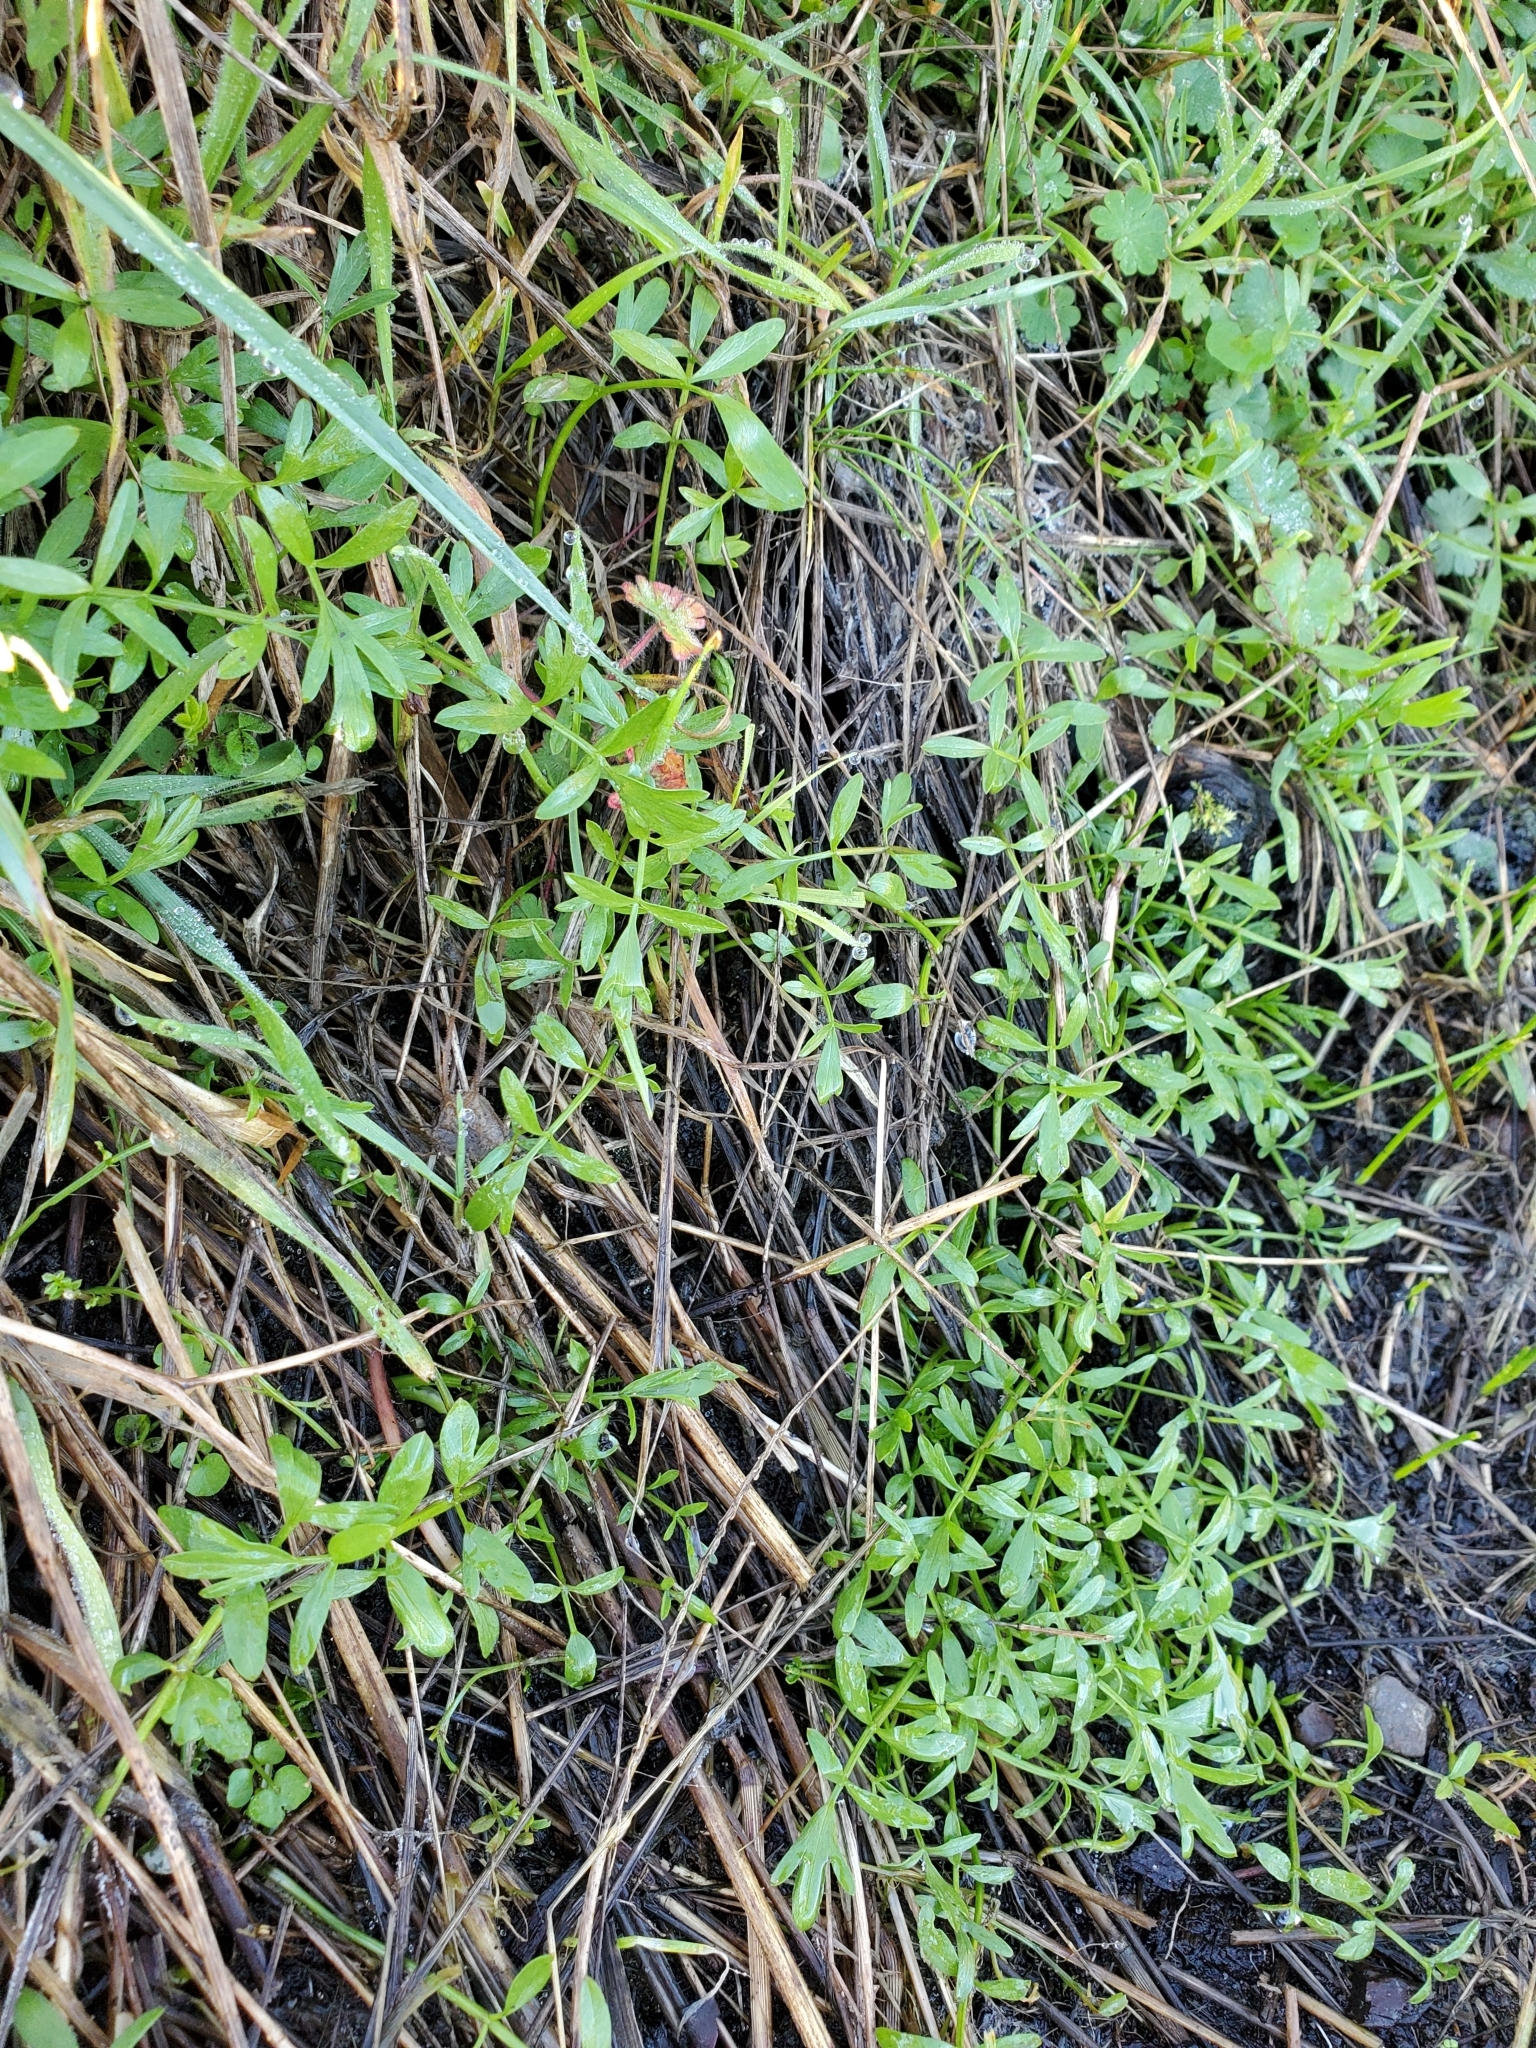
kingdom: Plantae
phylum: Tracheophyta
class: Magnoliopsida
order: Apiales
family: Apiaceae
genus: Perideridia
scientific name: Perideridia gairdneri
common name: False caraway
